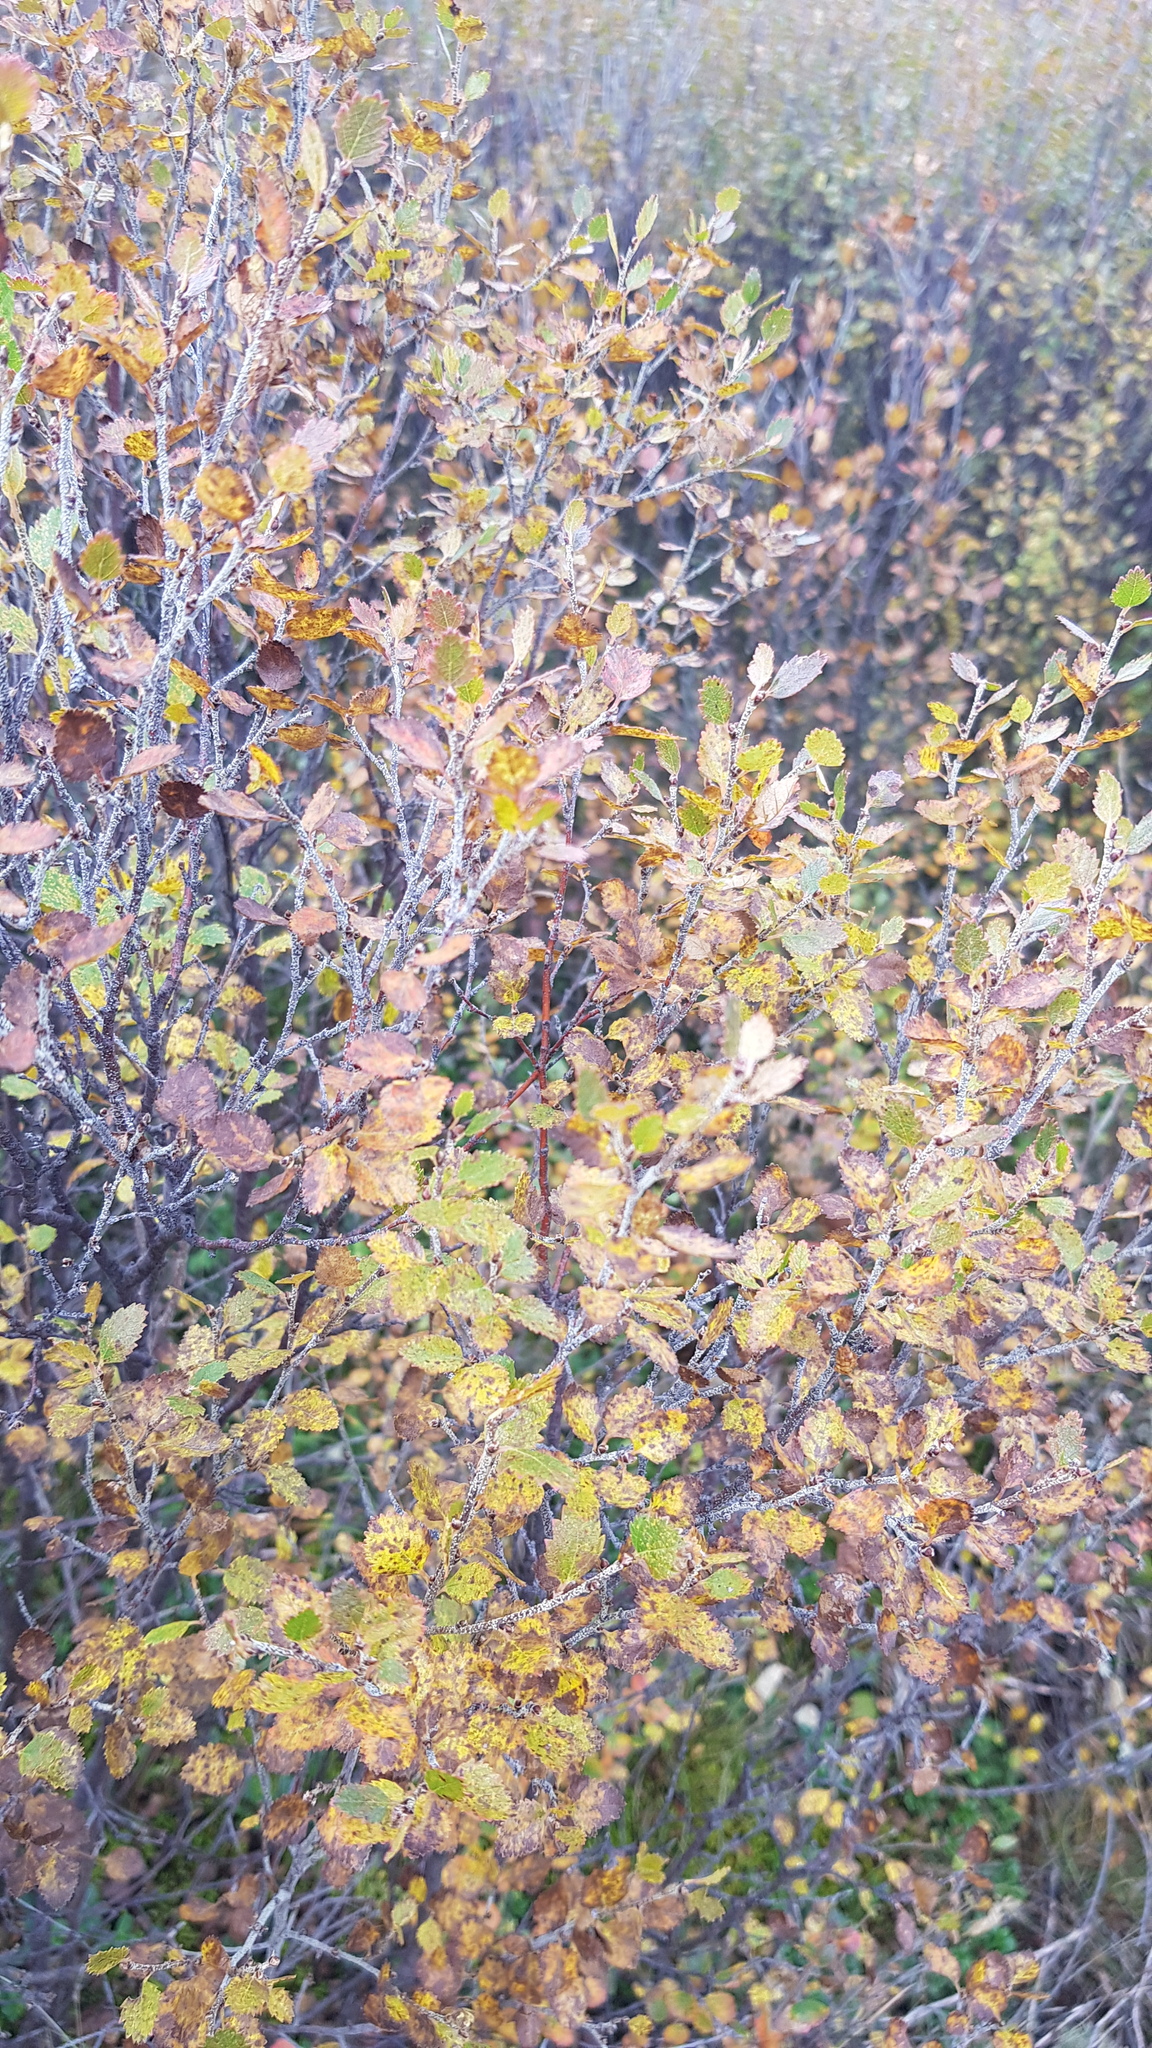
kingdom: Plantae
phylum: Tracheophyta
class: Magnoliopsida
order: Fagales
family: Betulaceae
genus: Betula
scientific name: Betula fruticosa
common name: Japanese bog birch
